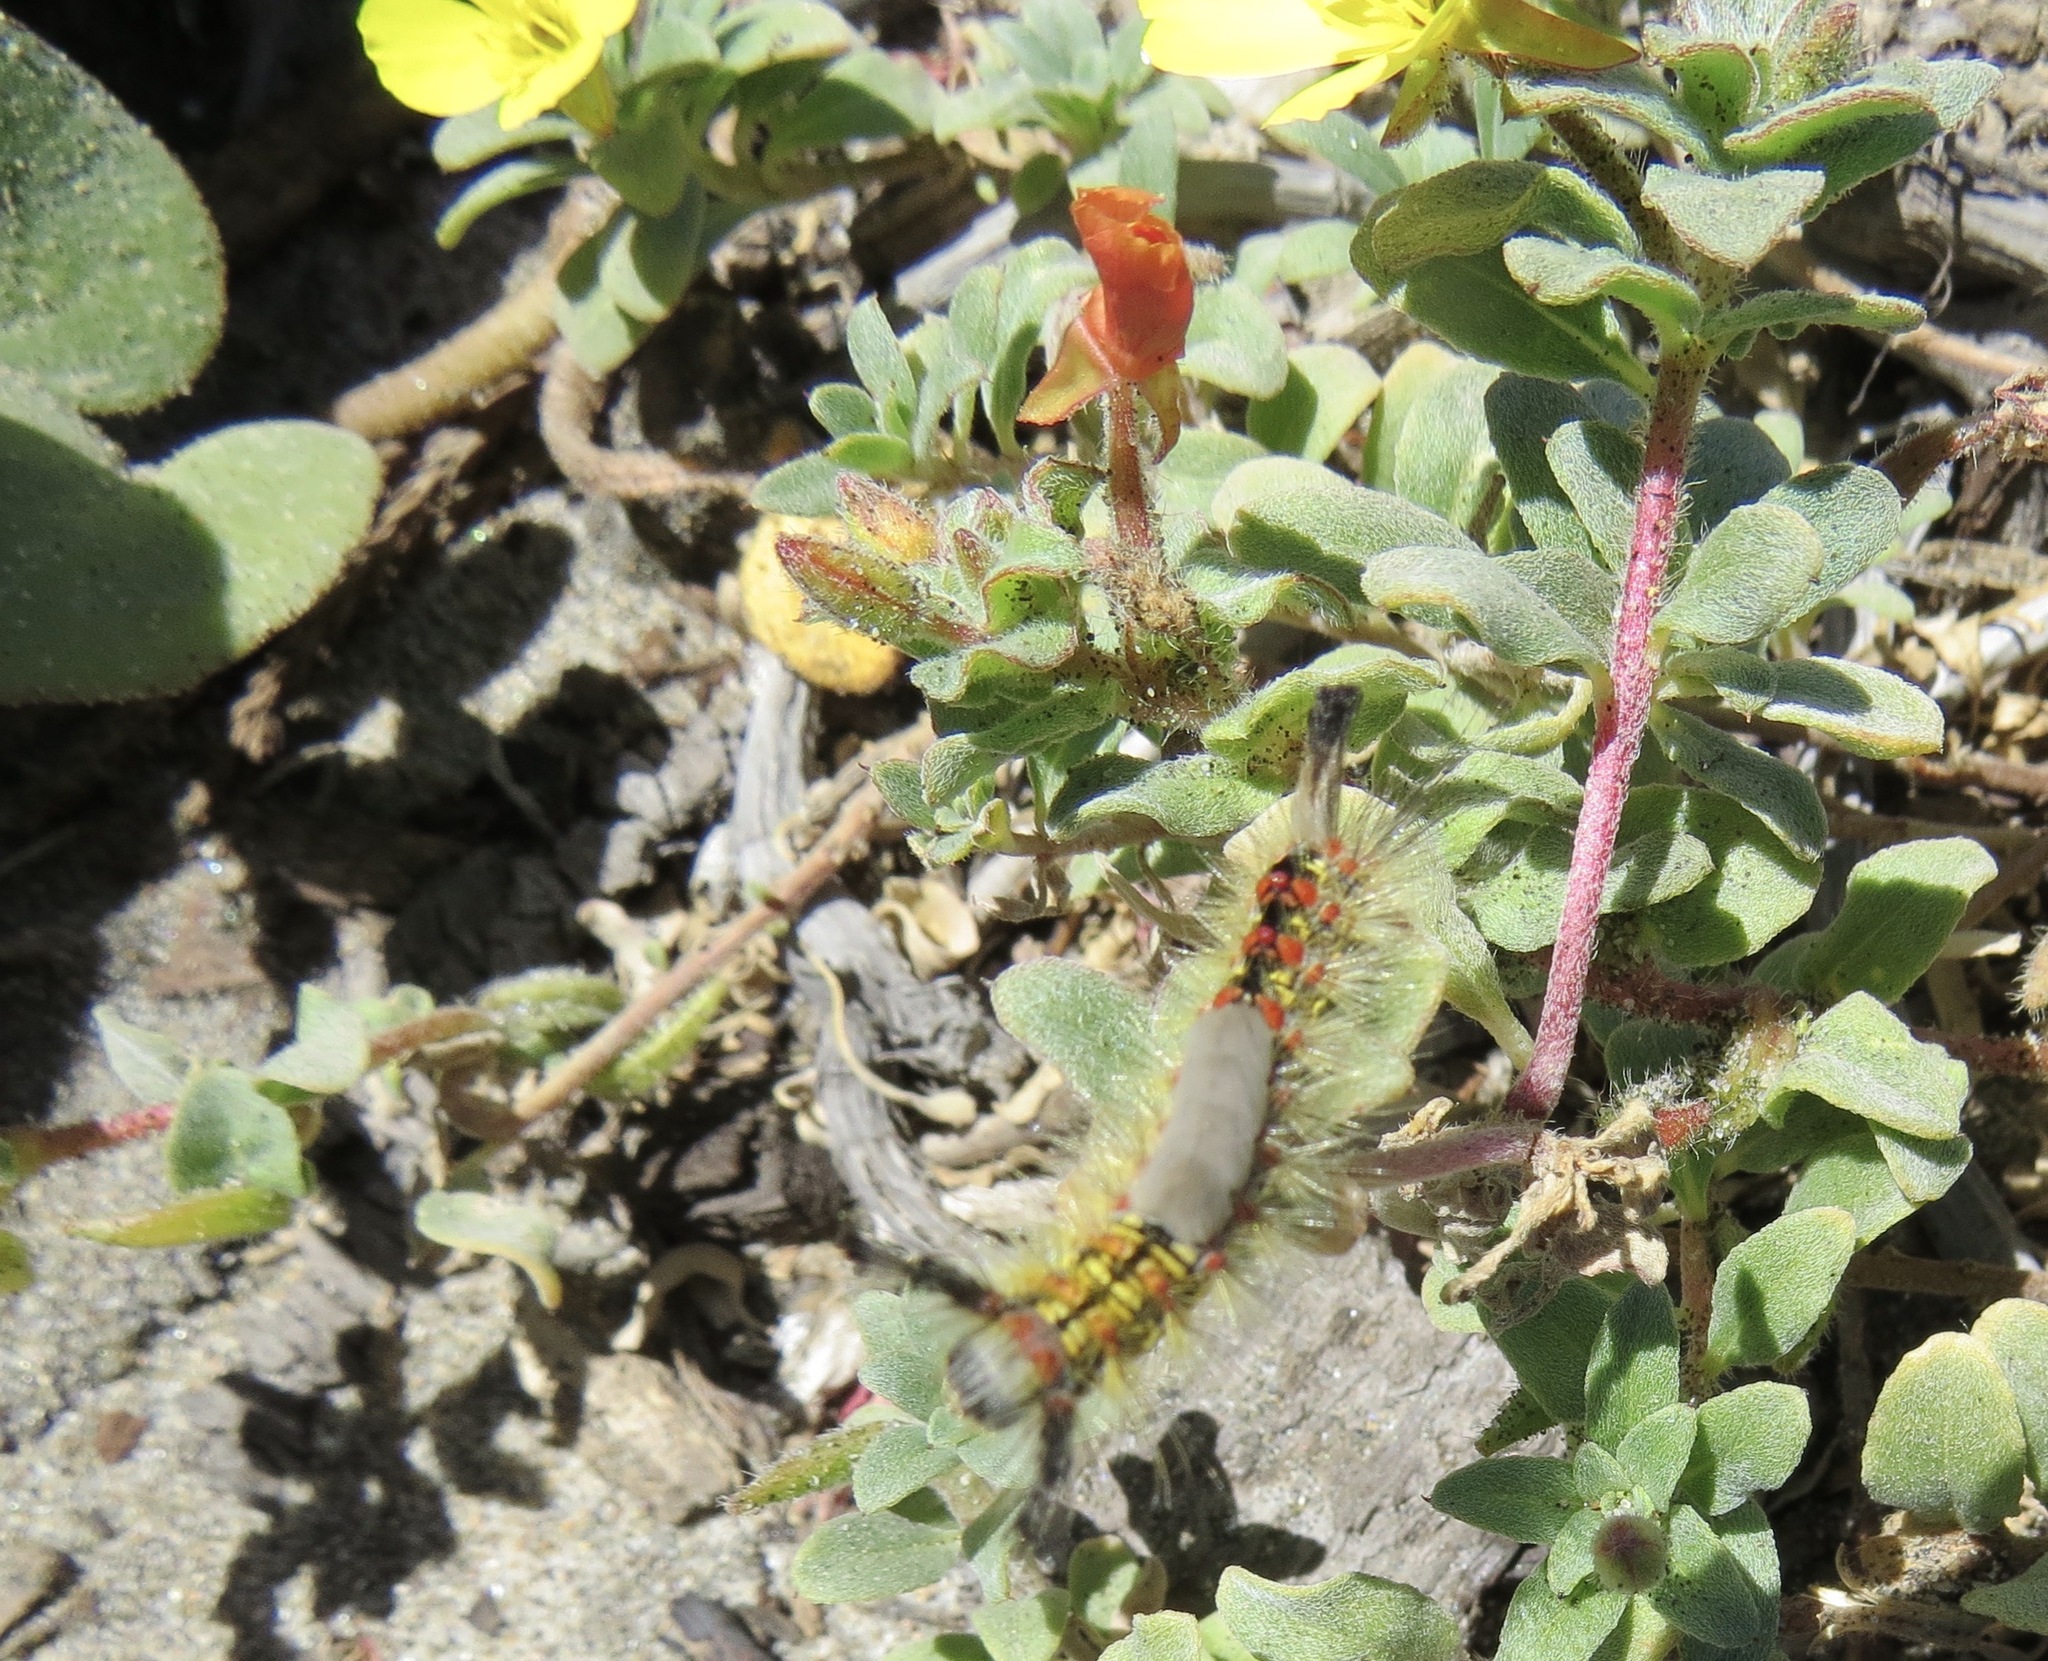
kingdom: Animalia
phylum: Arthropoda
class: Insecta
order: Lepidoptera
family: Erebidae
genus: Orgyia
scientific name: Orgyia vetusta
